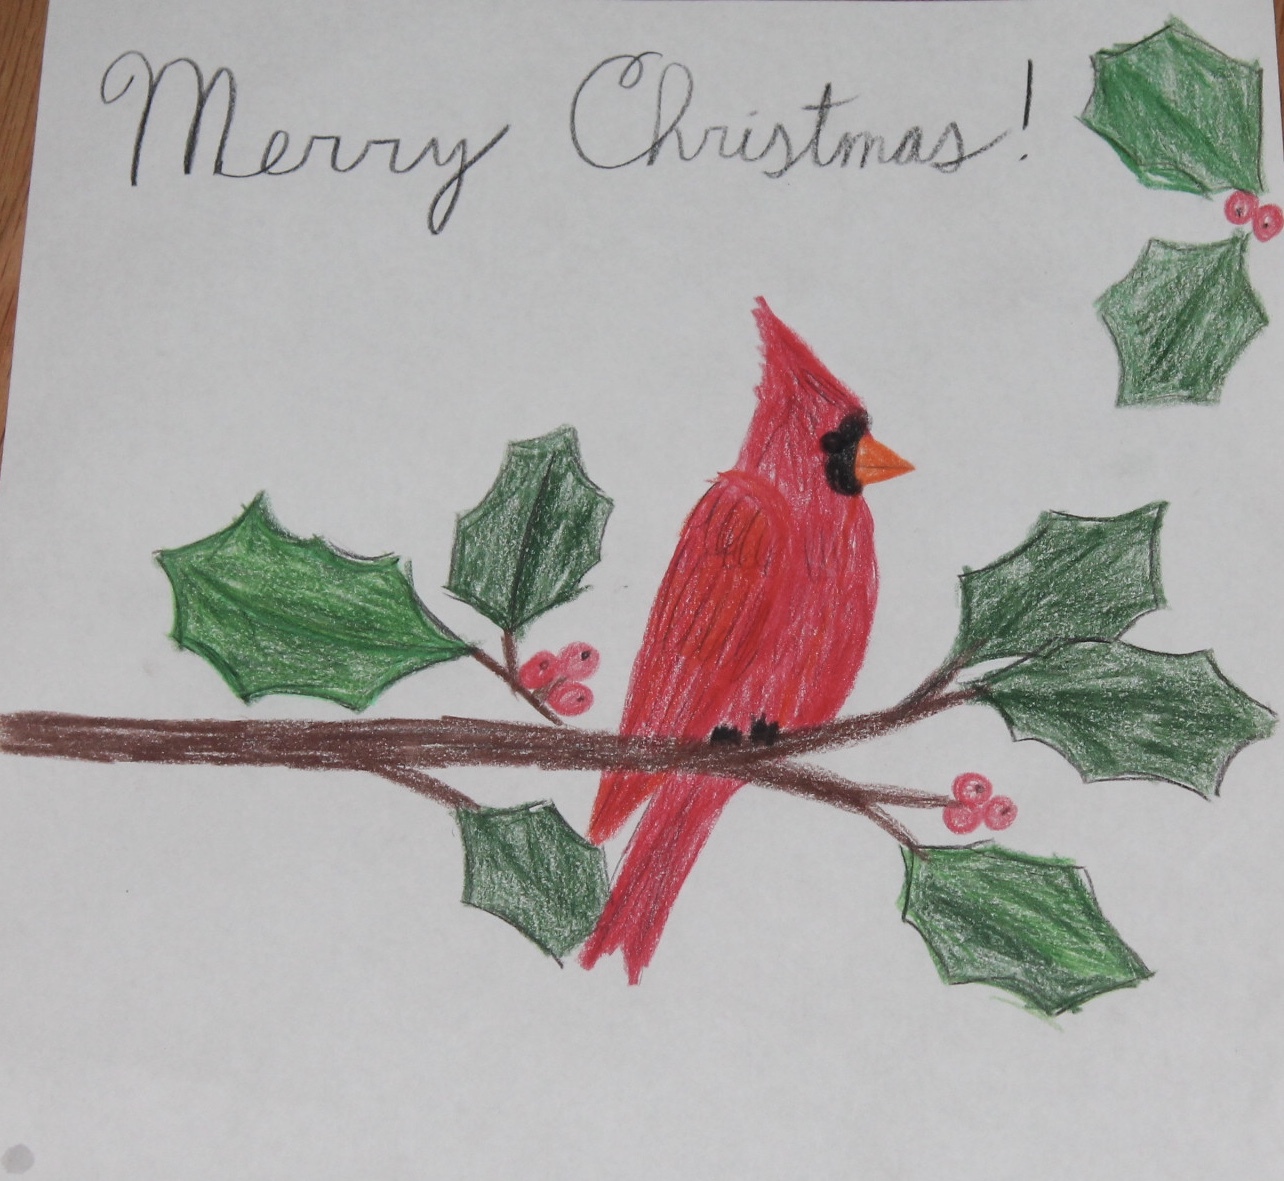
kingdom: Animalia
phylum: Chordata
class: Aves
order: Passeriformes
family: Cardinalidae
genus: Cardinalis
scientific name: Cardinalis cardinalis
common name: Northern cardinal
